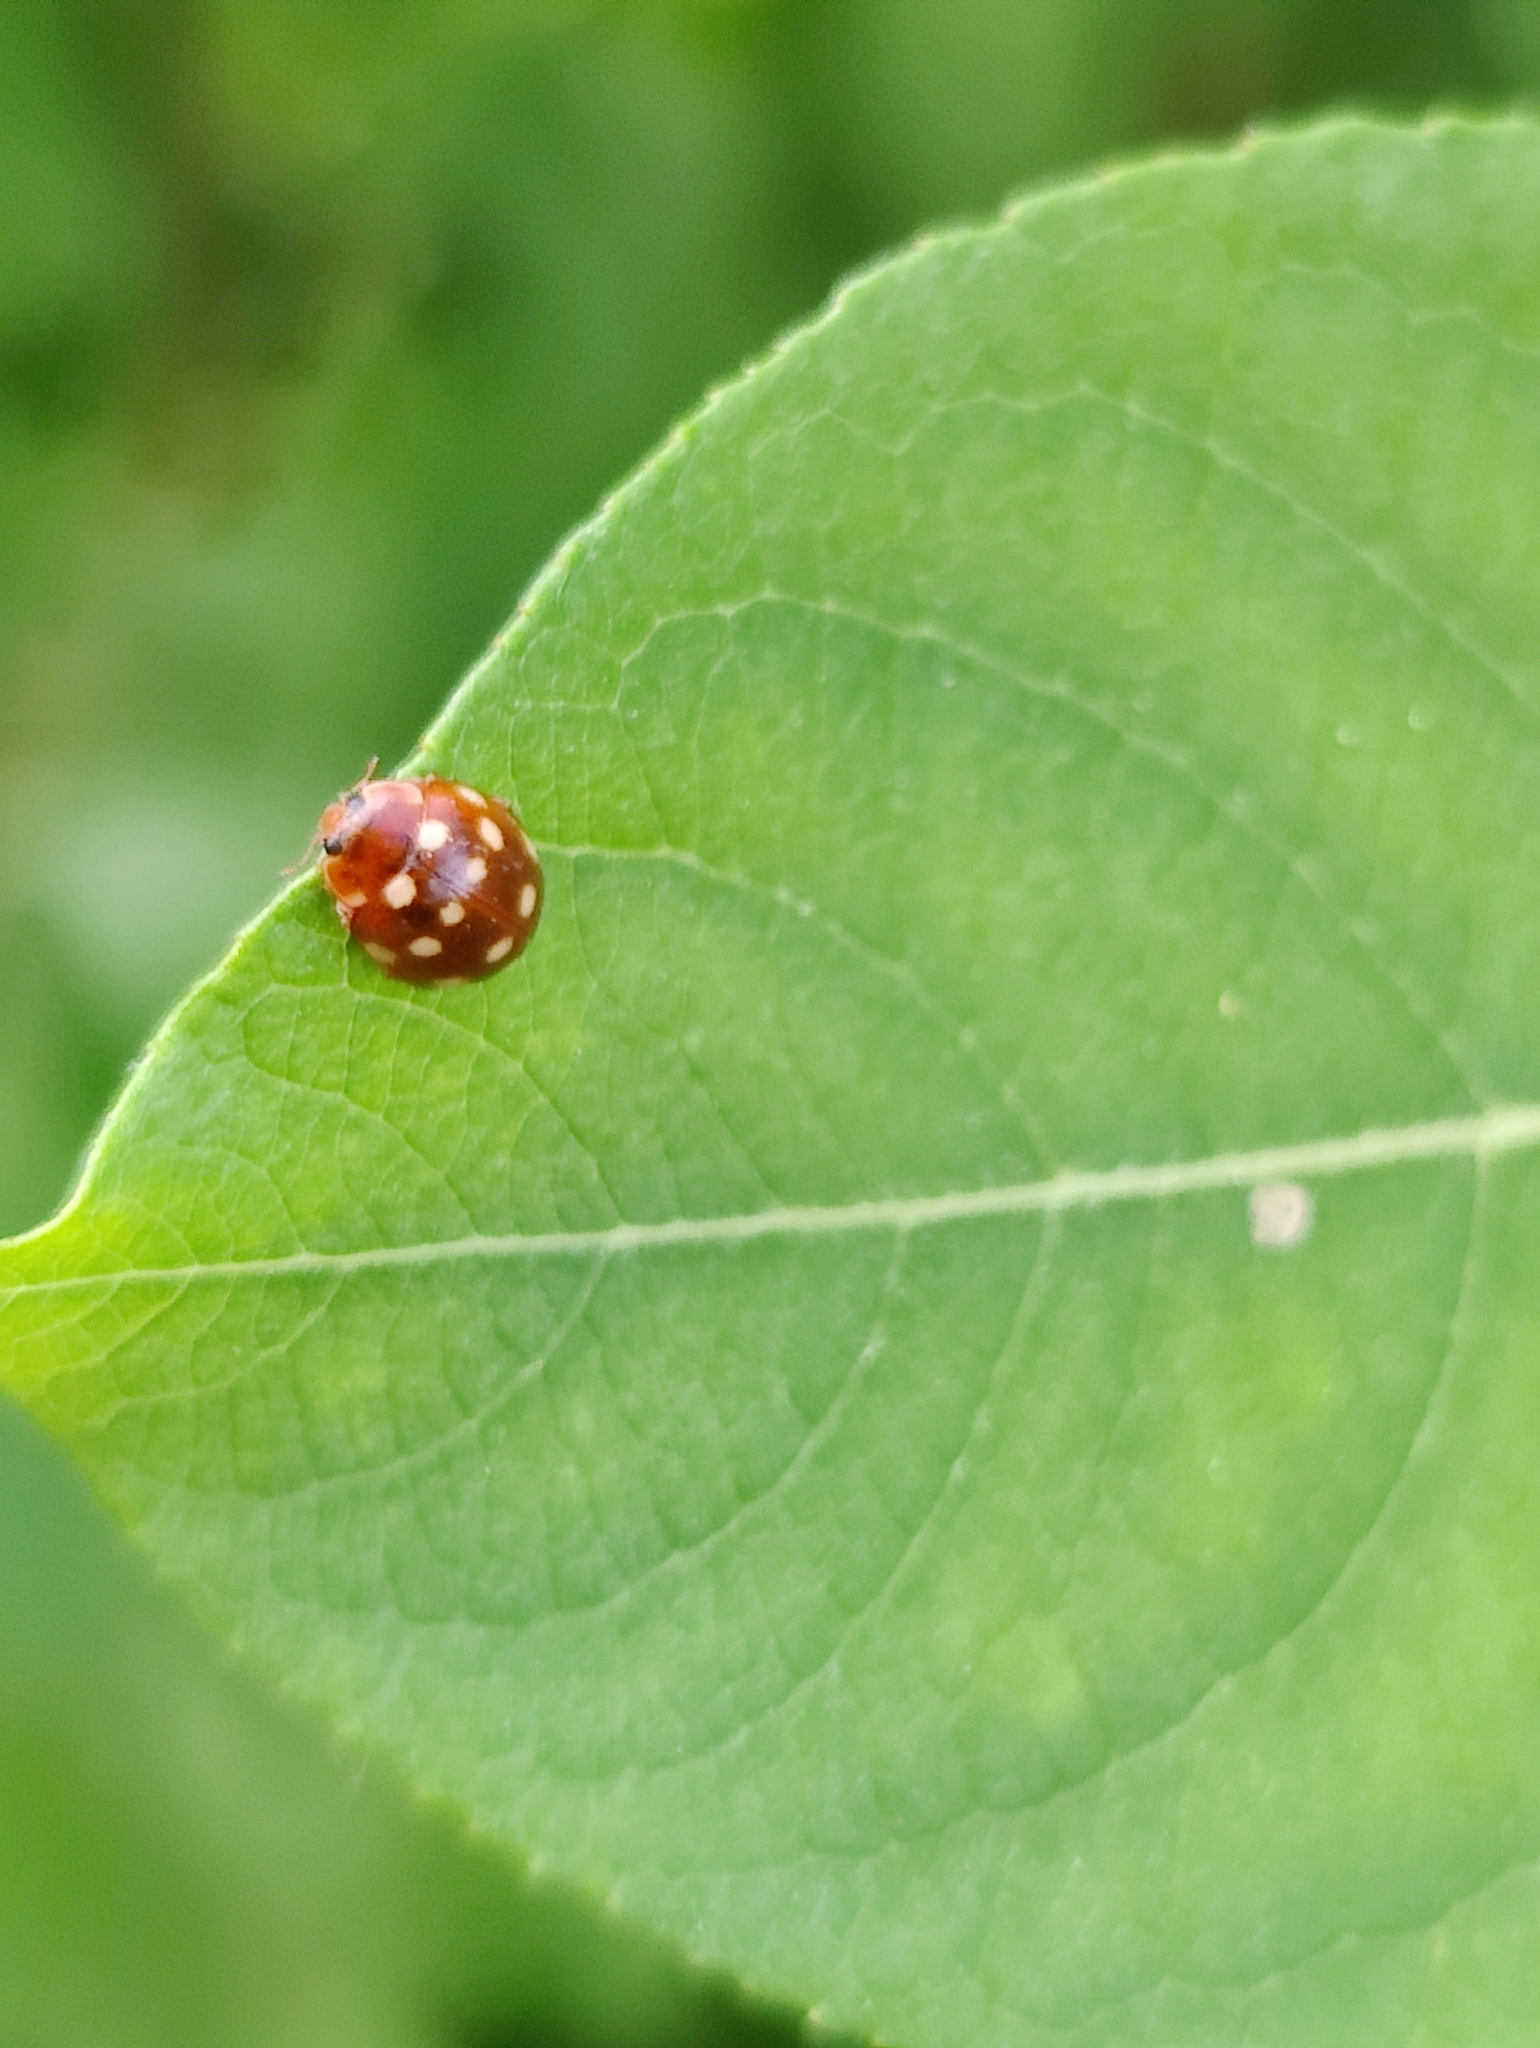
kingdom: Animalia
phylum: Arthropoda
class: Insecta
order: Coleoptera
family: Coccinellidae
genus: Calvia
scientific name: Calvia quatuordecimguttata
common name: Cream-spot ladybird
